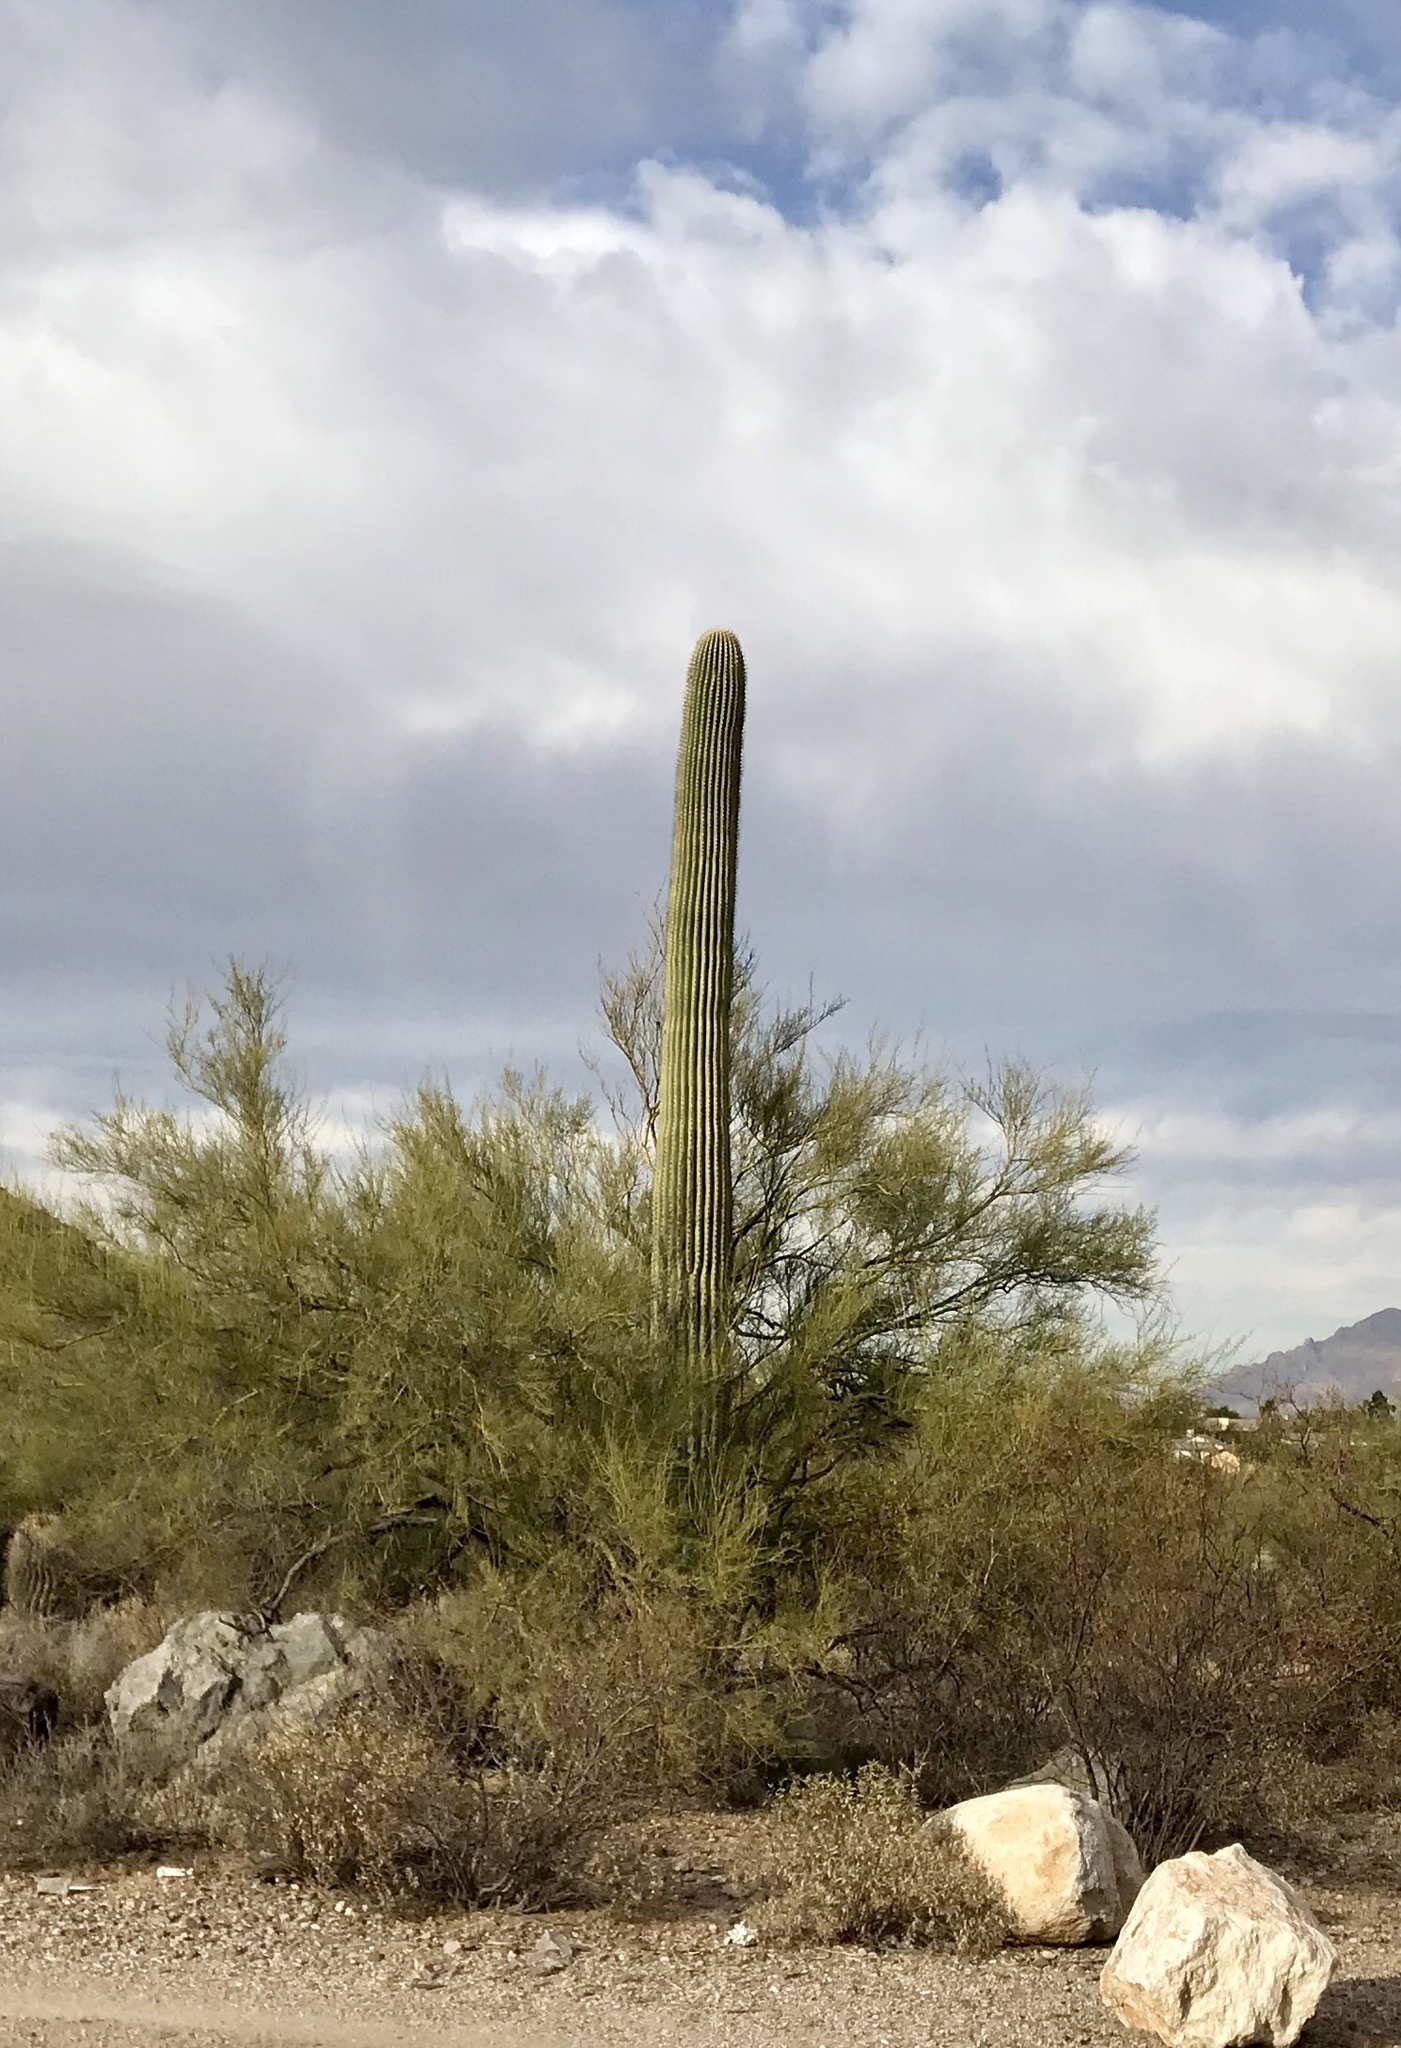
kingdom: Plantae
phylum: Tracheophyta
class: Magnoliopsida
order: Caryophyllales
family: Cactaceae
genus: Carnegiea
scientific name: Carnegiea gigantea
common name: Saguaro
